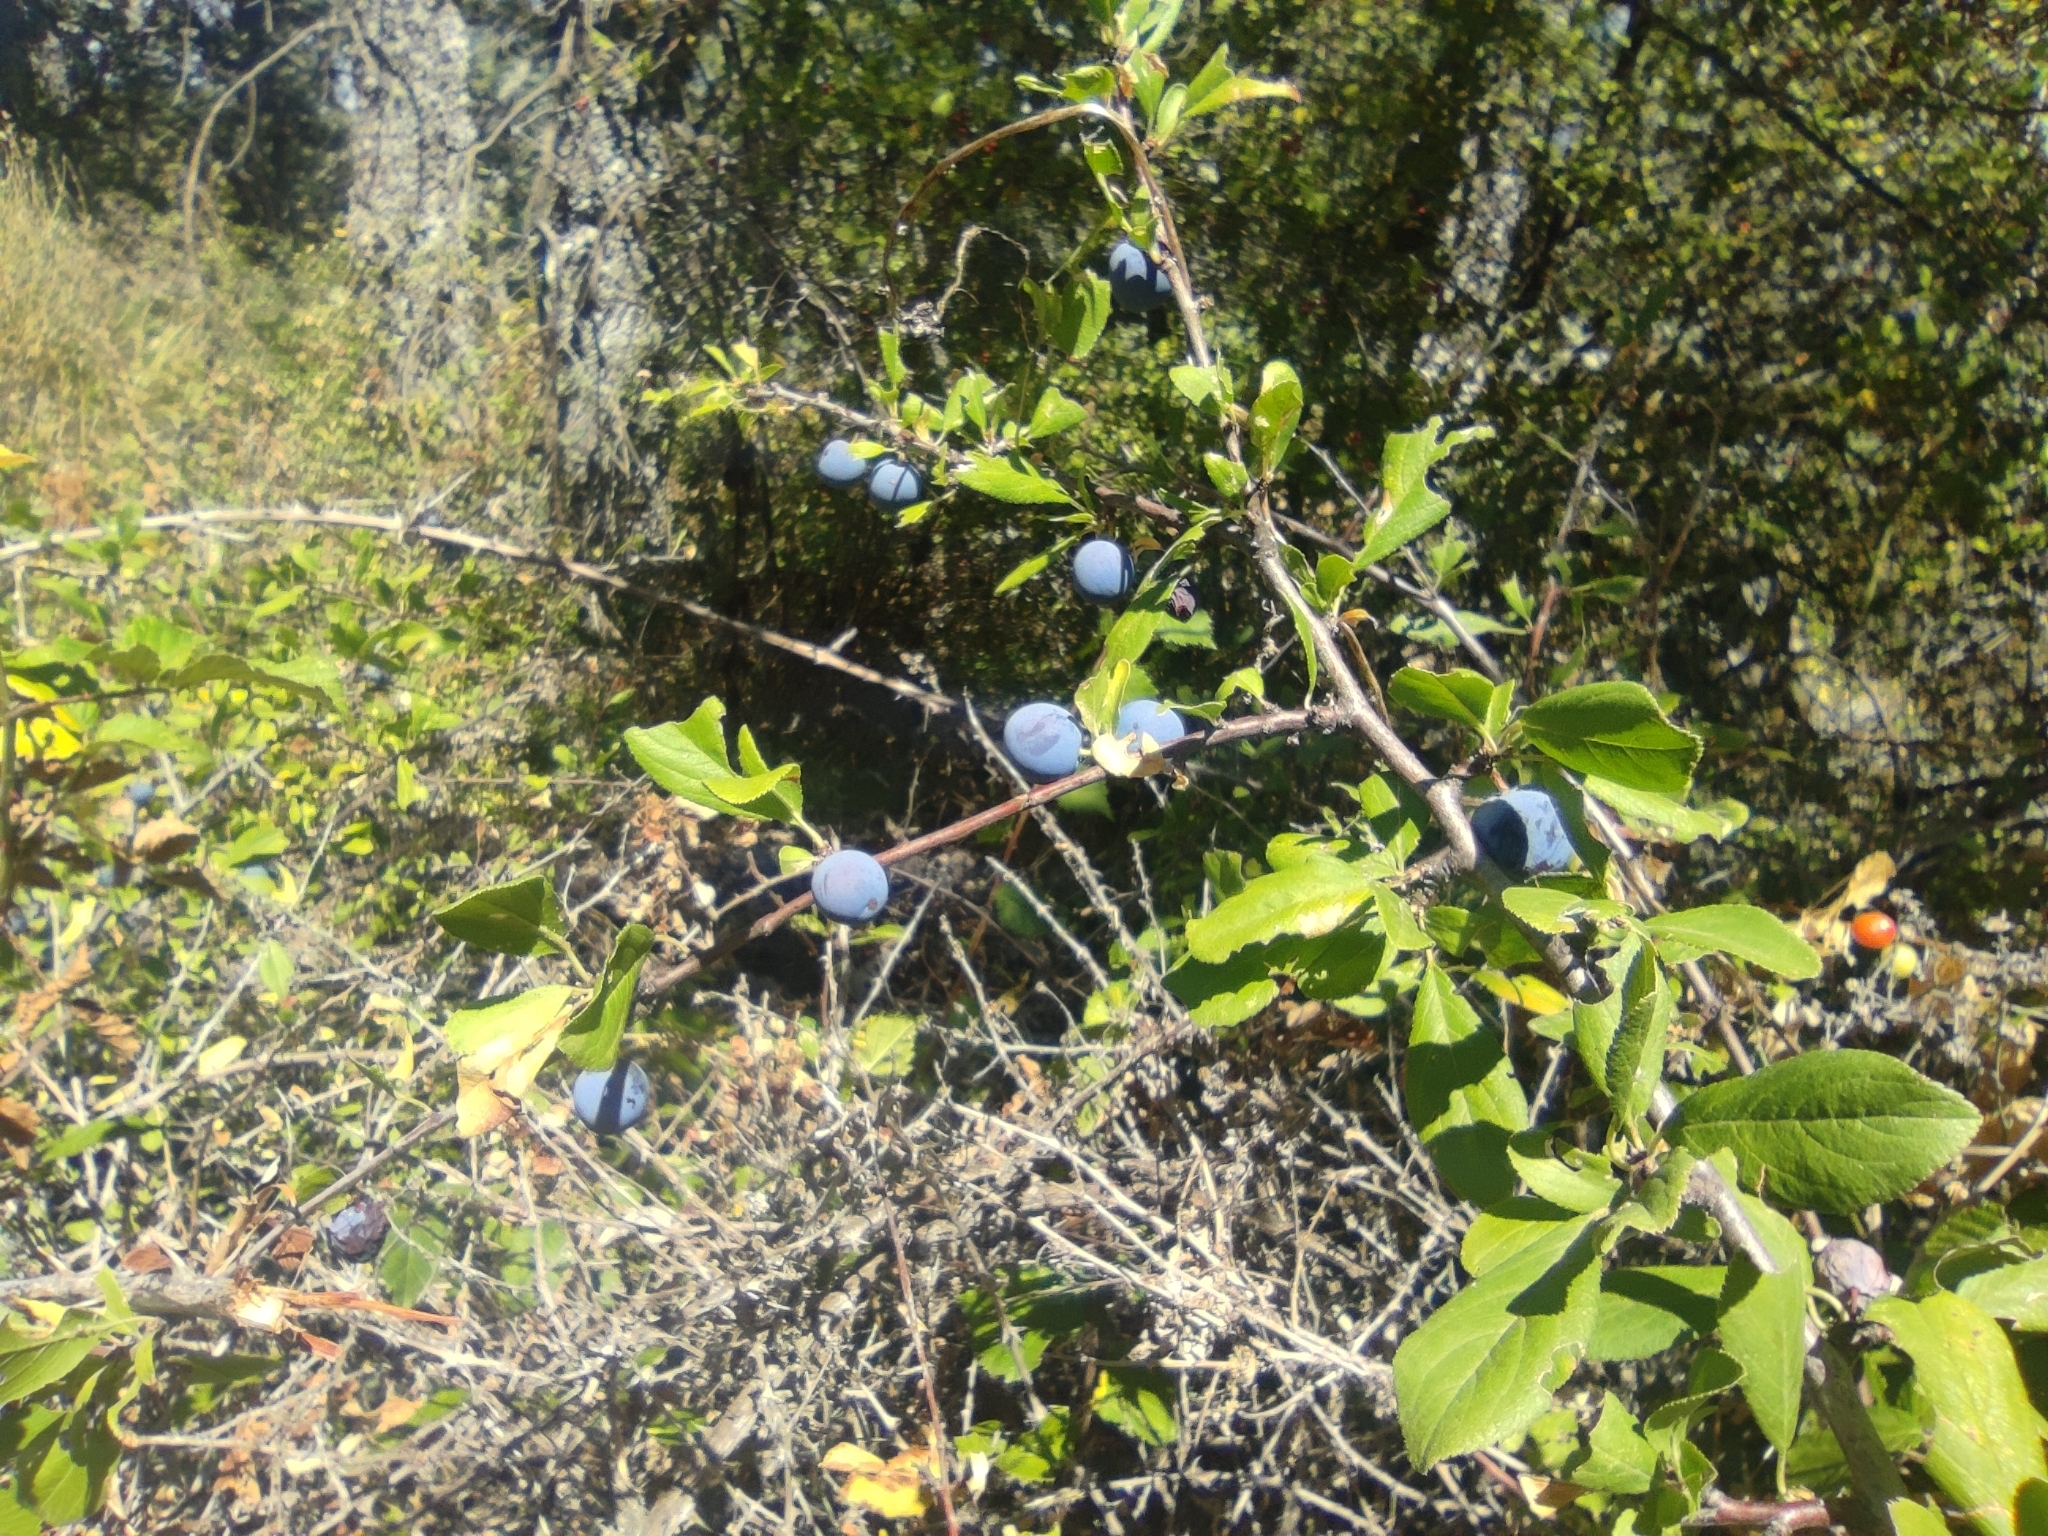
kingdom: Plantae
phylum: Tracheophyta
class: Magnoliopsida
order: Rosales
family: Rosaceae
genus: Prunus
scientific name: Prunus spinosa
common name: Blackthorn
